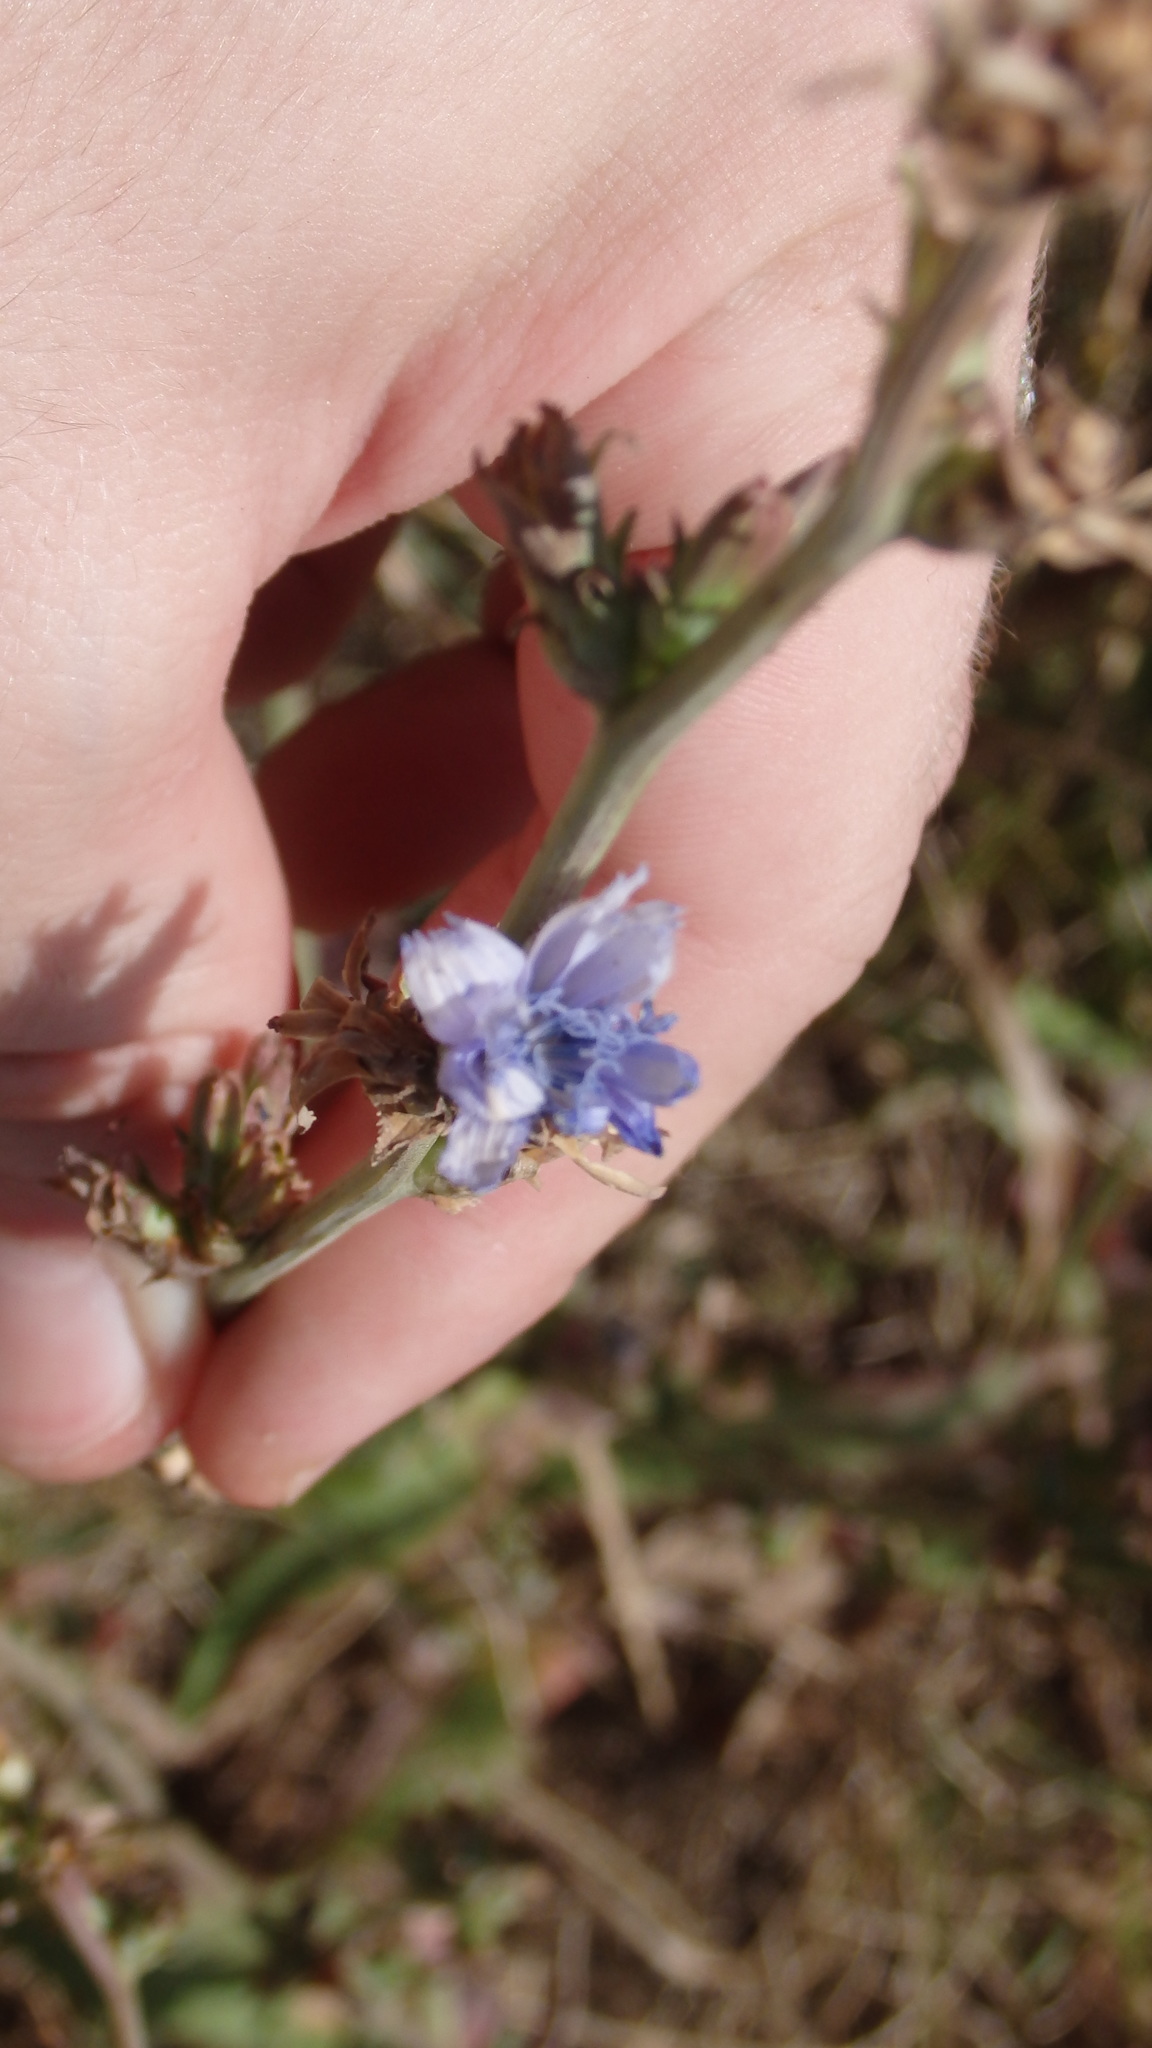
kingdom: Plantae
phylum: Tracheophyta
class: Magnoliopsida
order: Asterales
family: Asteraceae
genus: Cichorium
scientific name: Cichorium intybus
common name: Chicory
